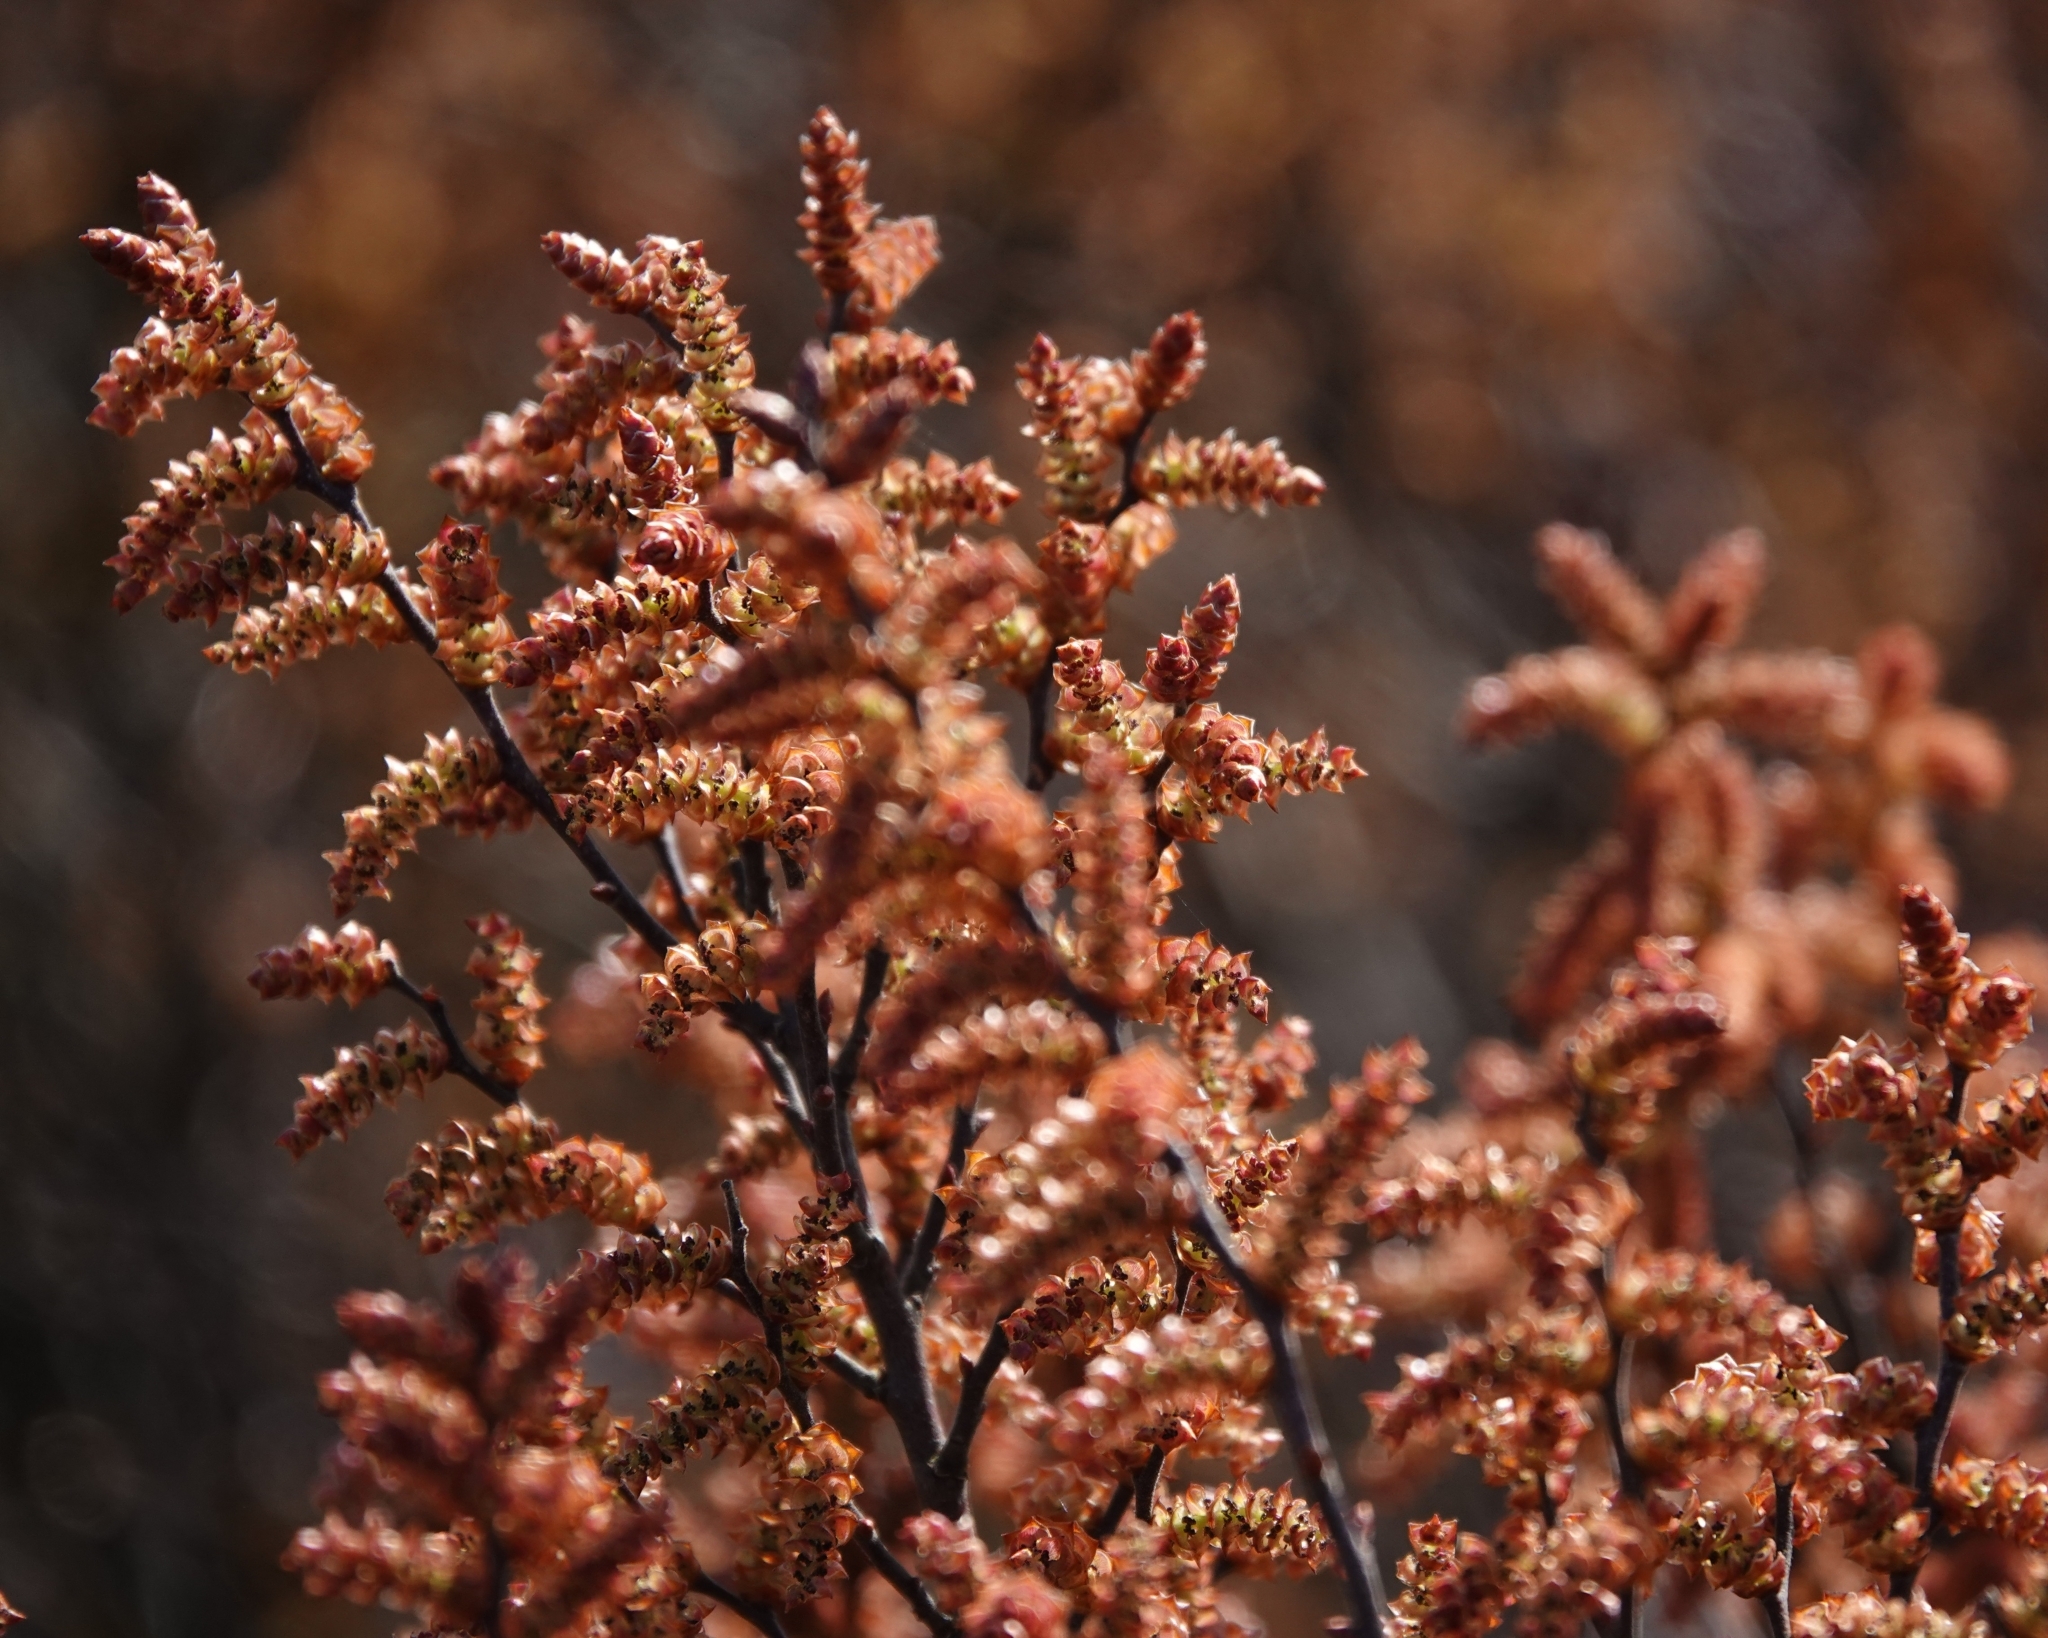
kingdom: Plantae
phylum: Tracheophyta
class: Magnoliopsida
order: Fagales
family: Myricaceae
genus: Myrica
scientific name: Myrica gale
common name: Sweet gale
